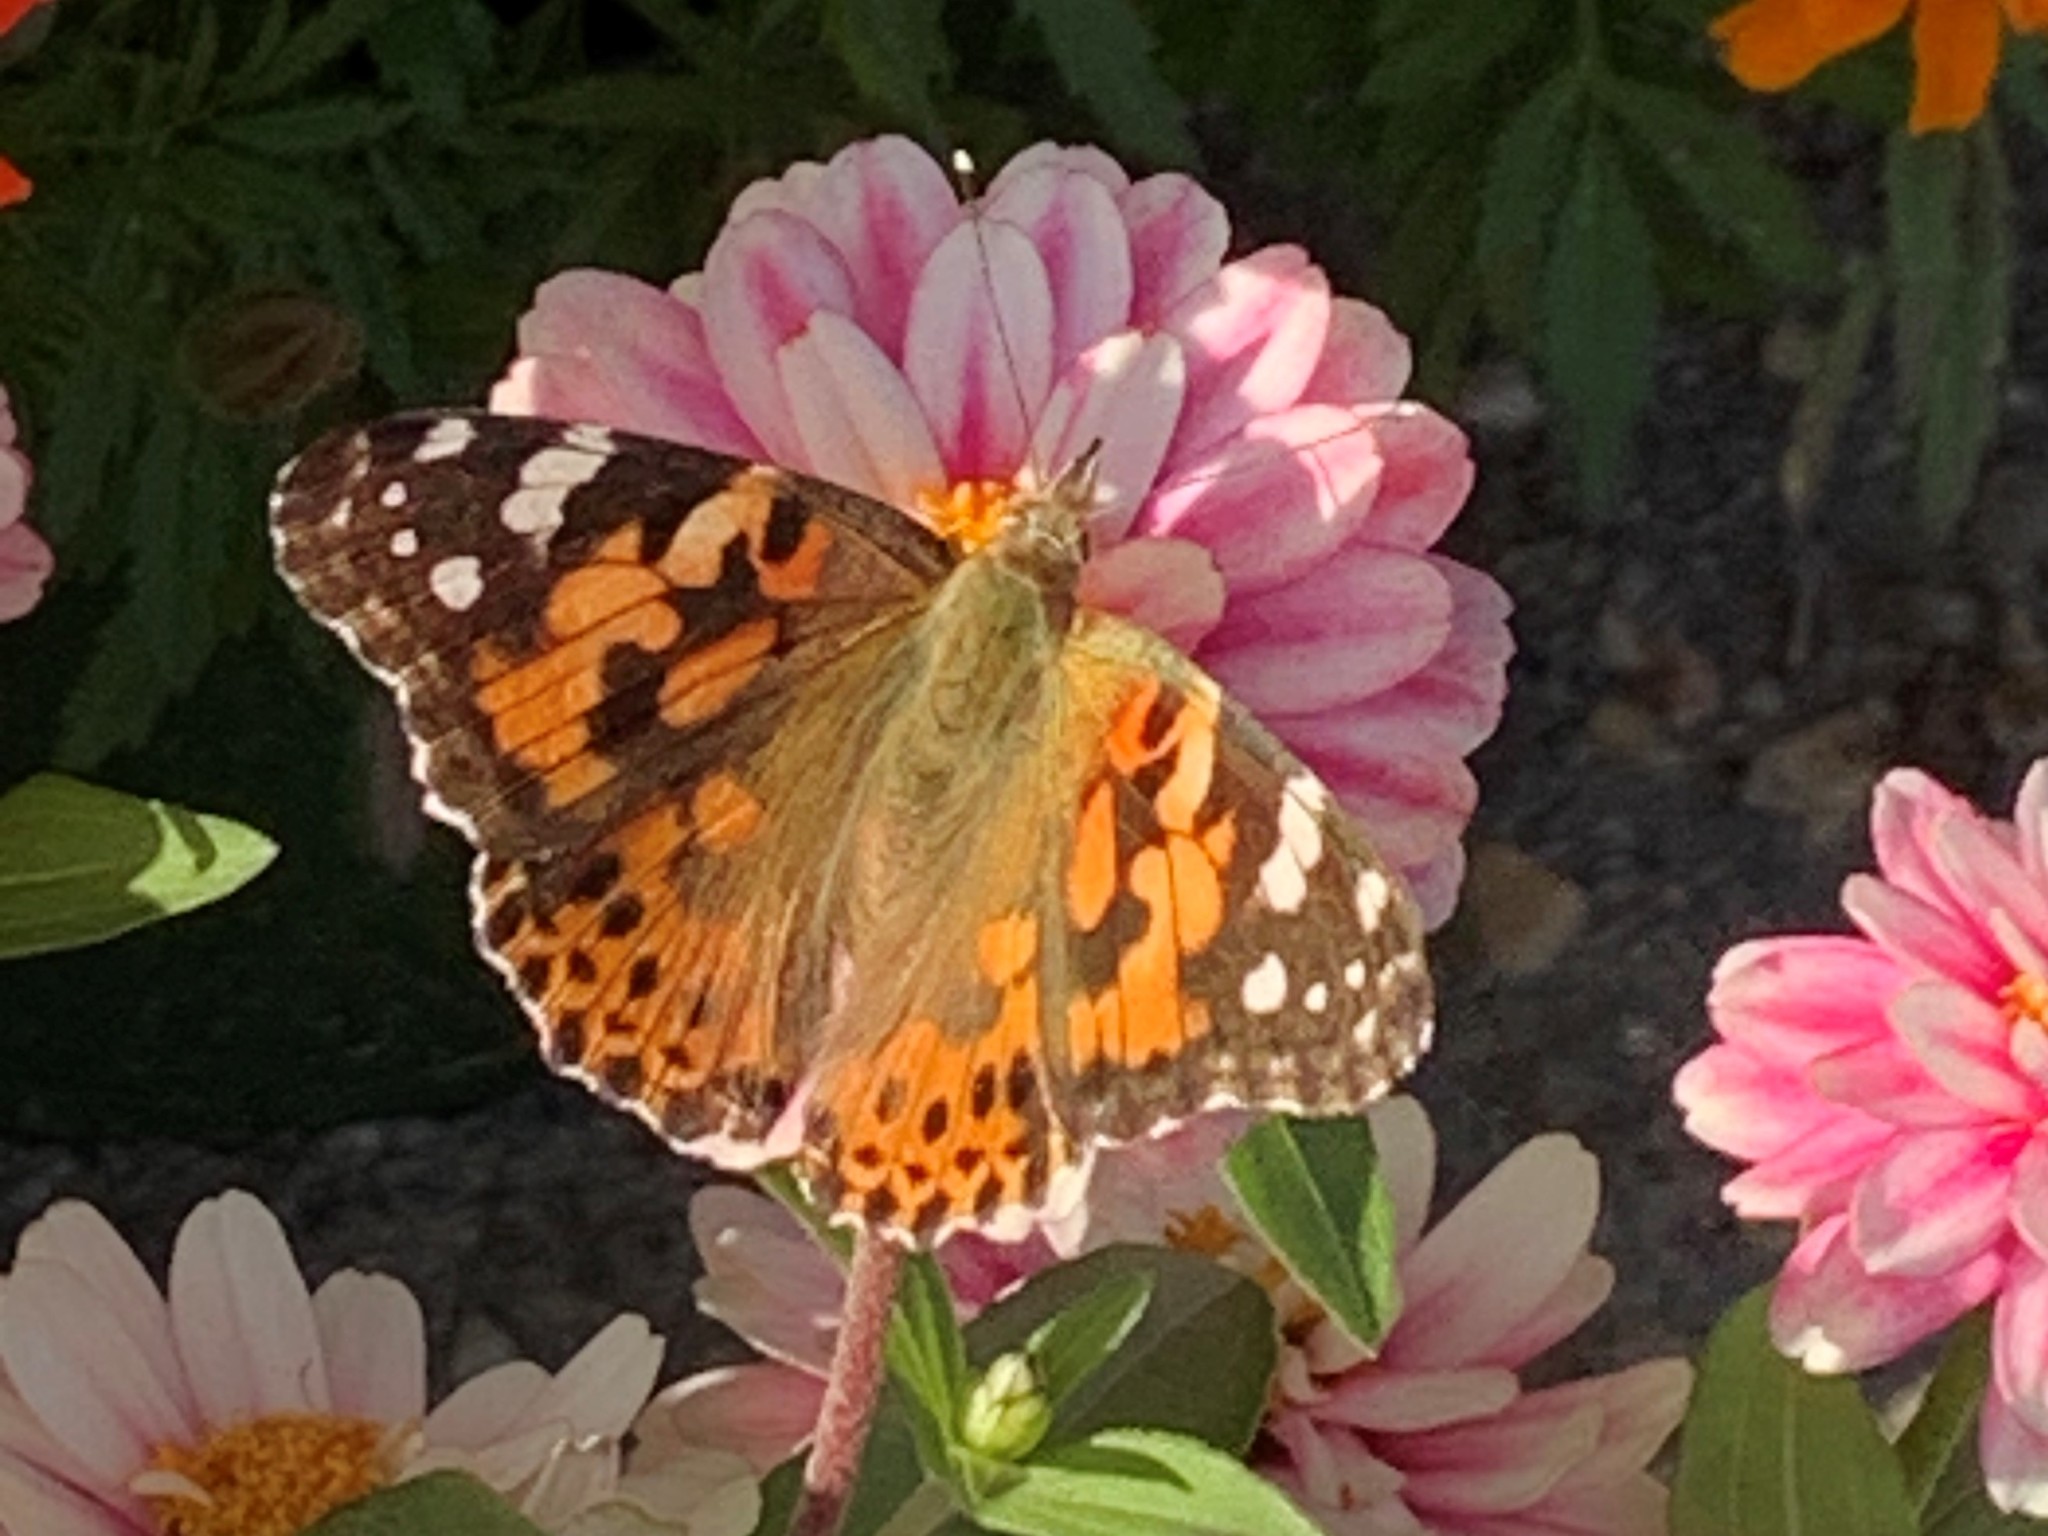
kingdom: Animalia
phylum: Arthropoda
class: Insecta
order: Lepidoptera
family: Nymphalidae
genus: Vanessa
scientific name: Vanessa cardui
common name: Painted lady
